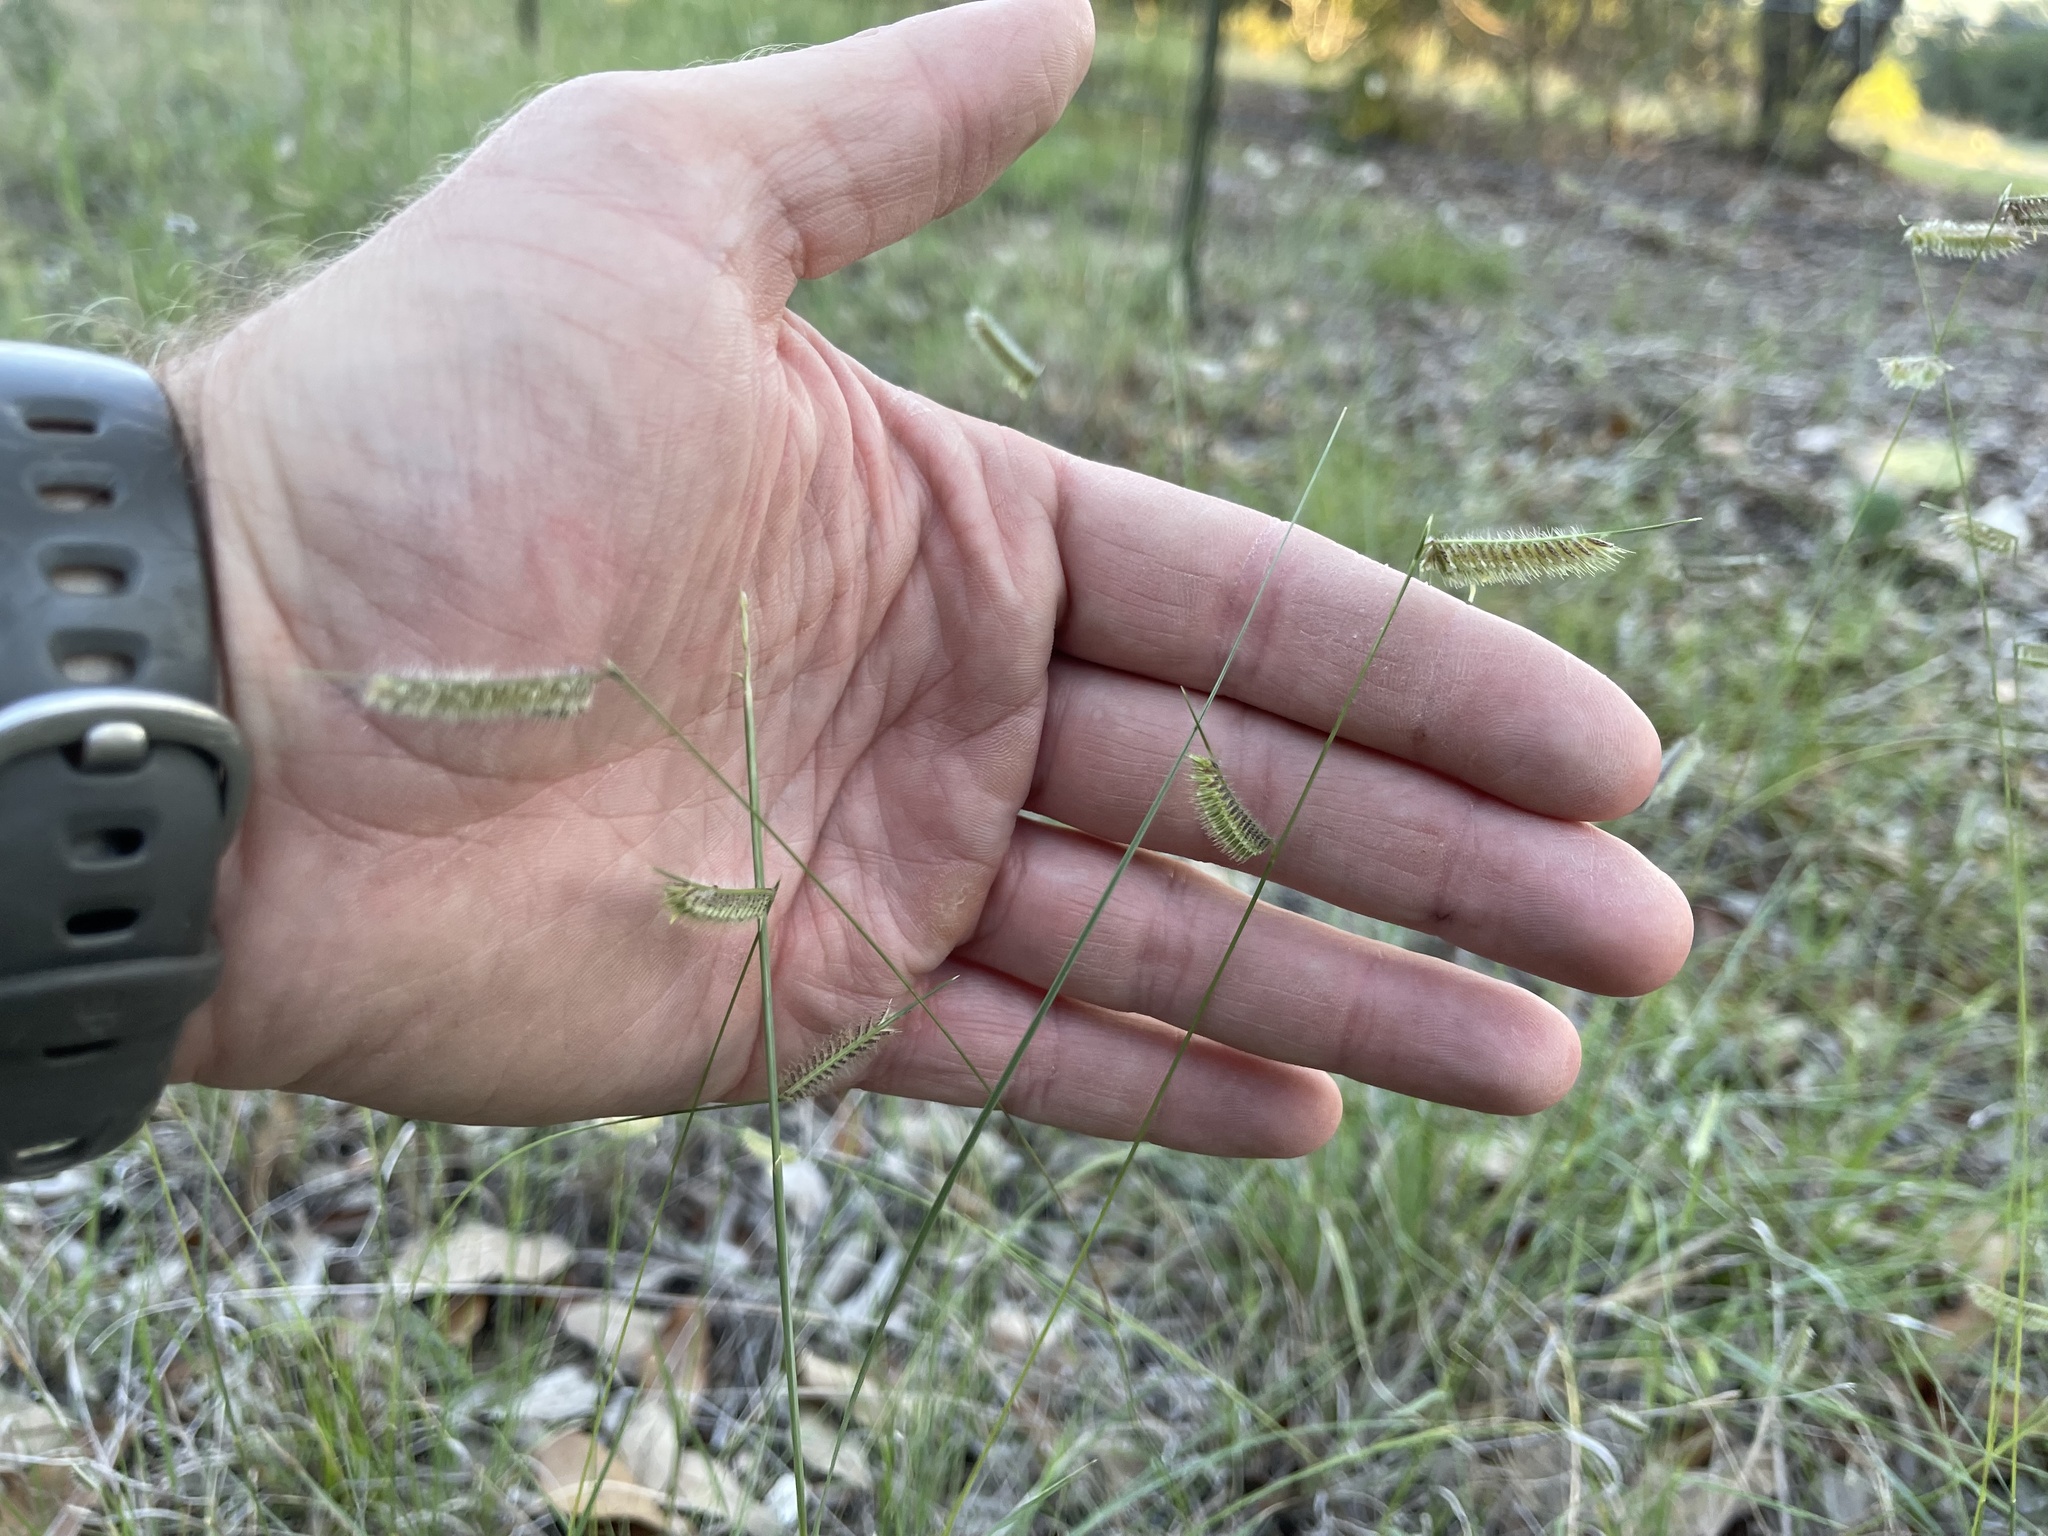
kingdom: Plantae
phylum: Tracheophyta
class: Liliopsida
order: Poales
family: Poaceae
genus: Bouteloua
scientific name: Bouteloua hirsuta
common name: Hairy grama
